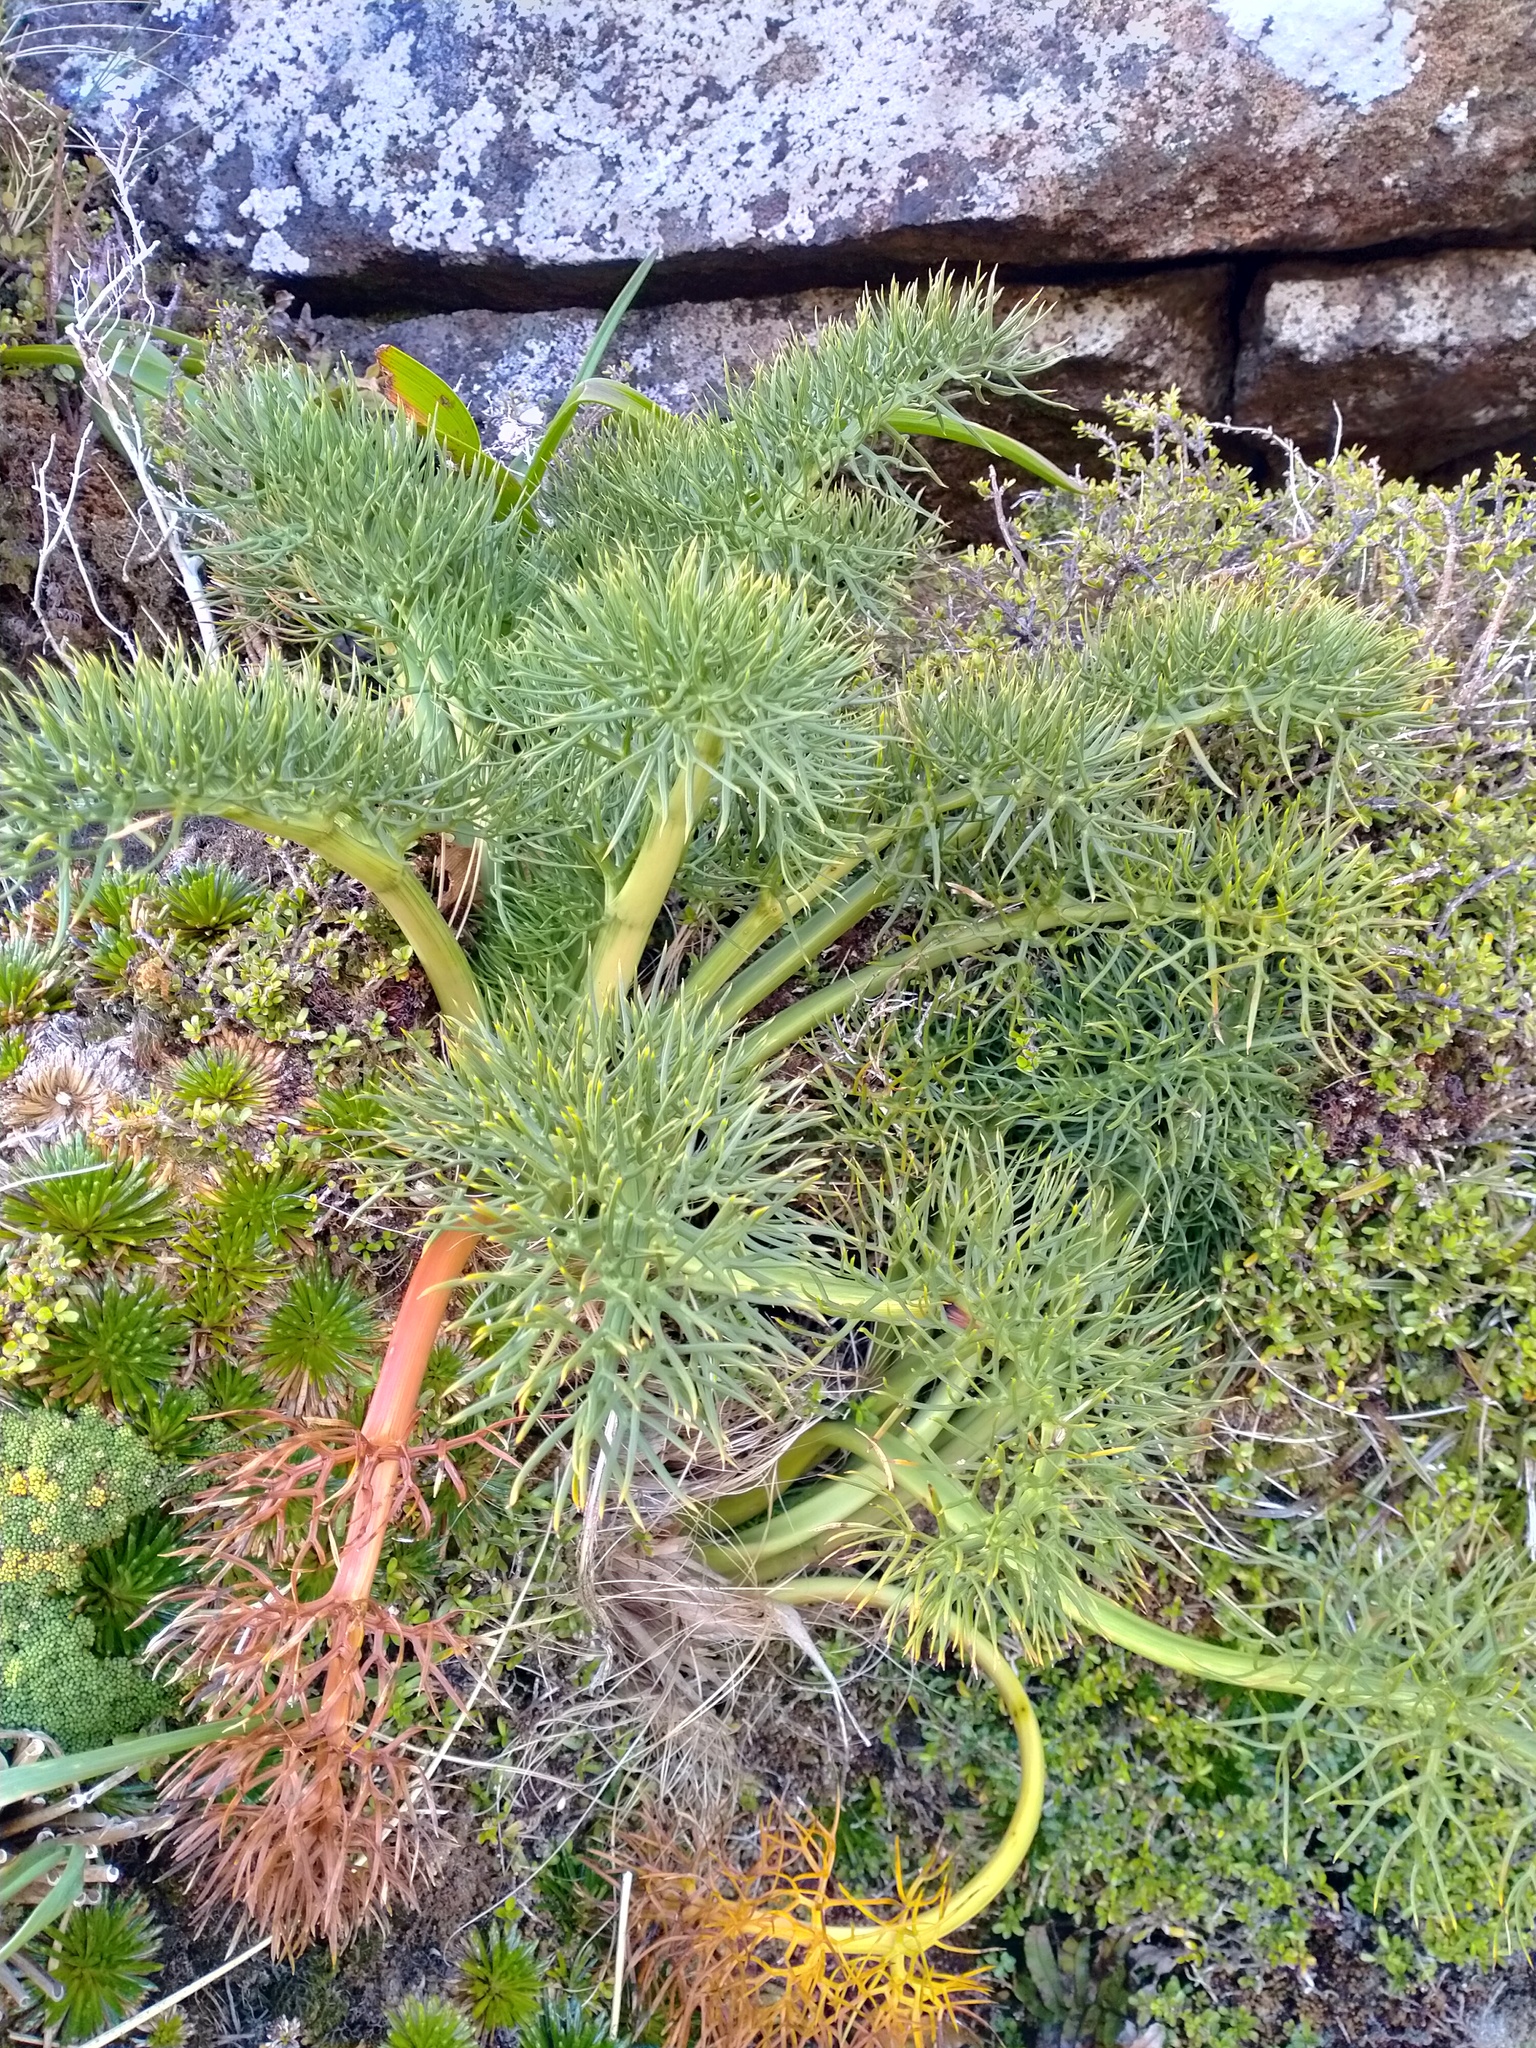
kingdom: Plantae
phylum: Tracheophyta
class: Magnoliopsida
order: Apiales
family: Apiaceae
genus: Anisotome
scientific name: Anisotome antipoda
